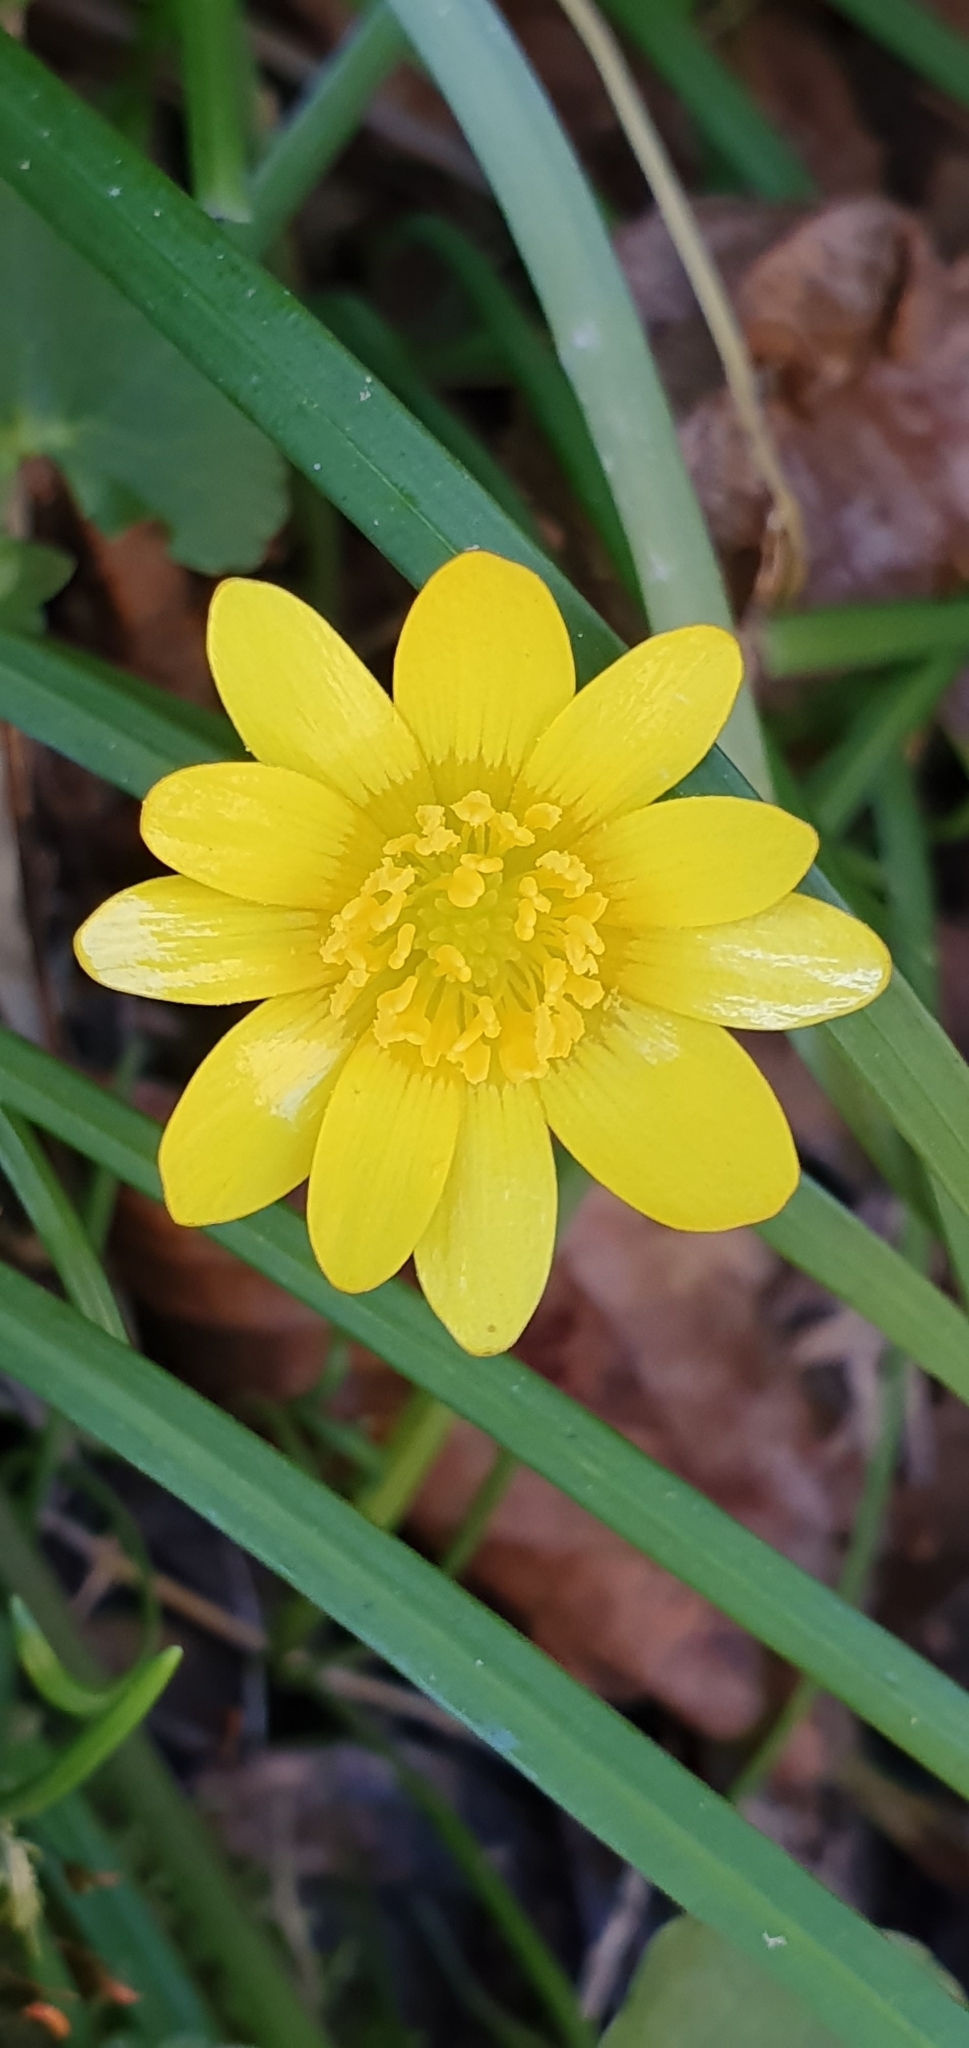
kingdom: Plantae
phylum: Tracheophyta
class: Magnoliopsida
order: Ranunculales
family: Ranunculaceae
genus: Ficaria
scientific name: Ficaria verna
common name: Lesser celandine
